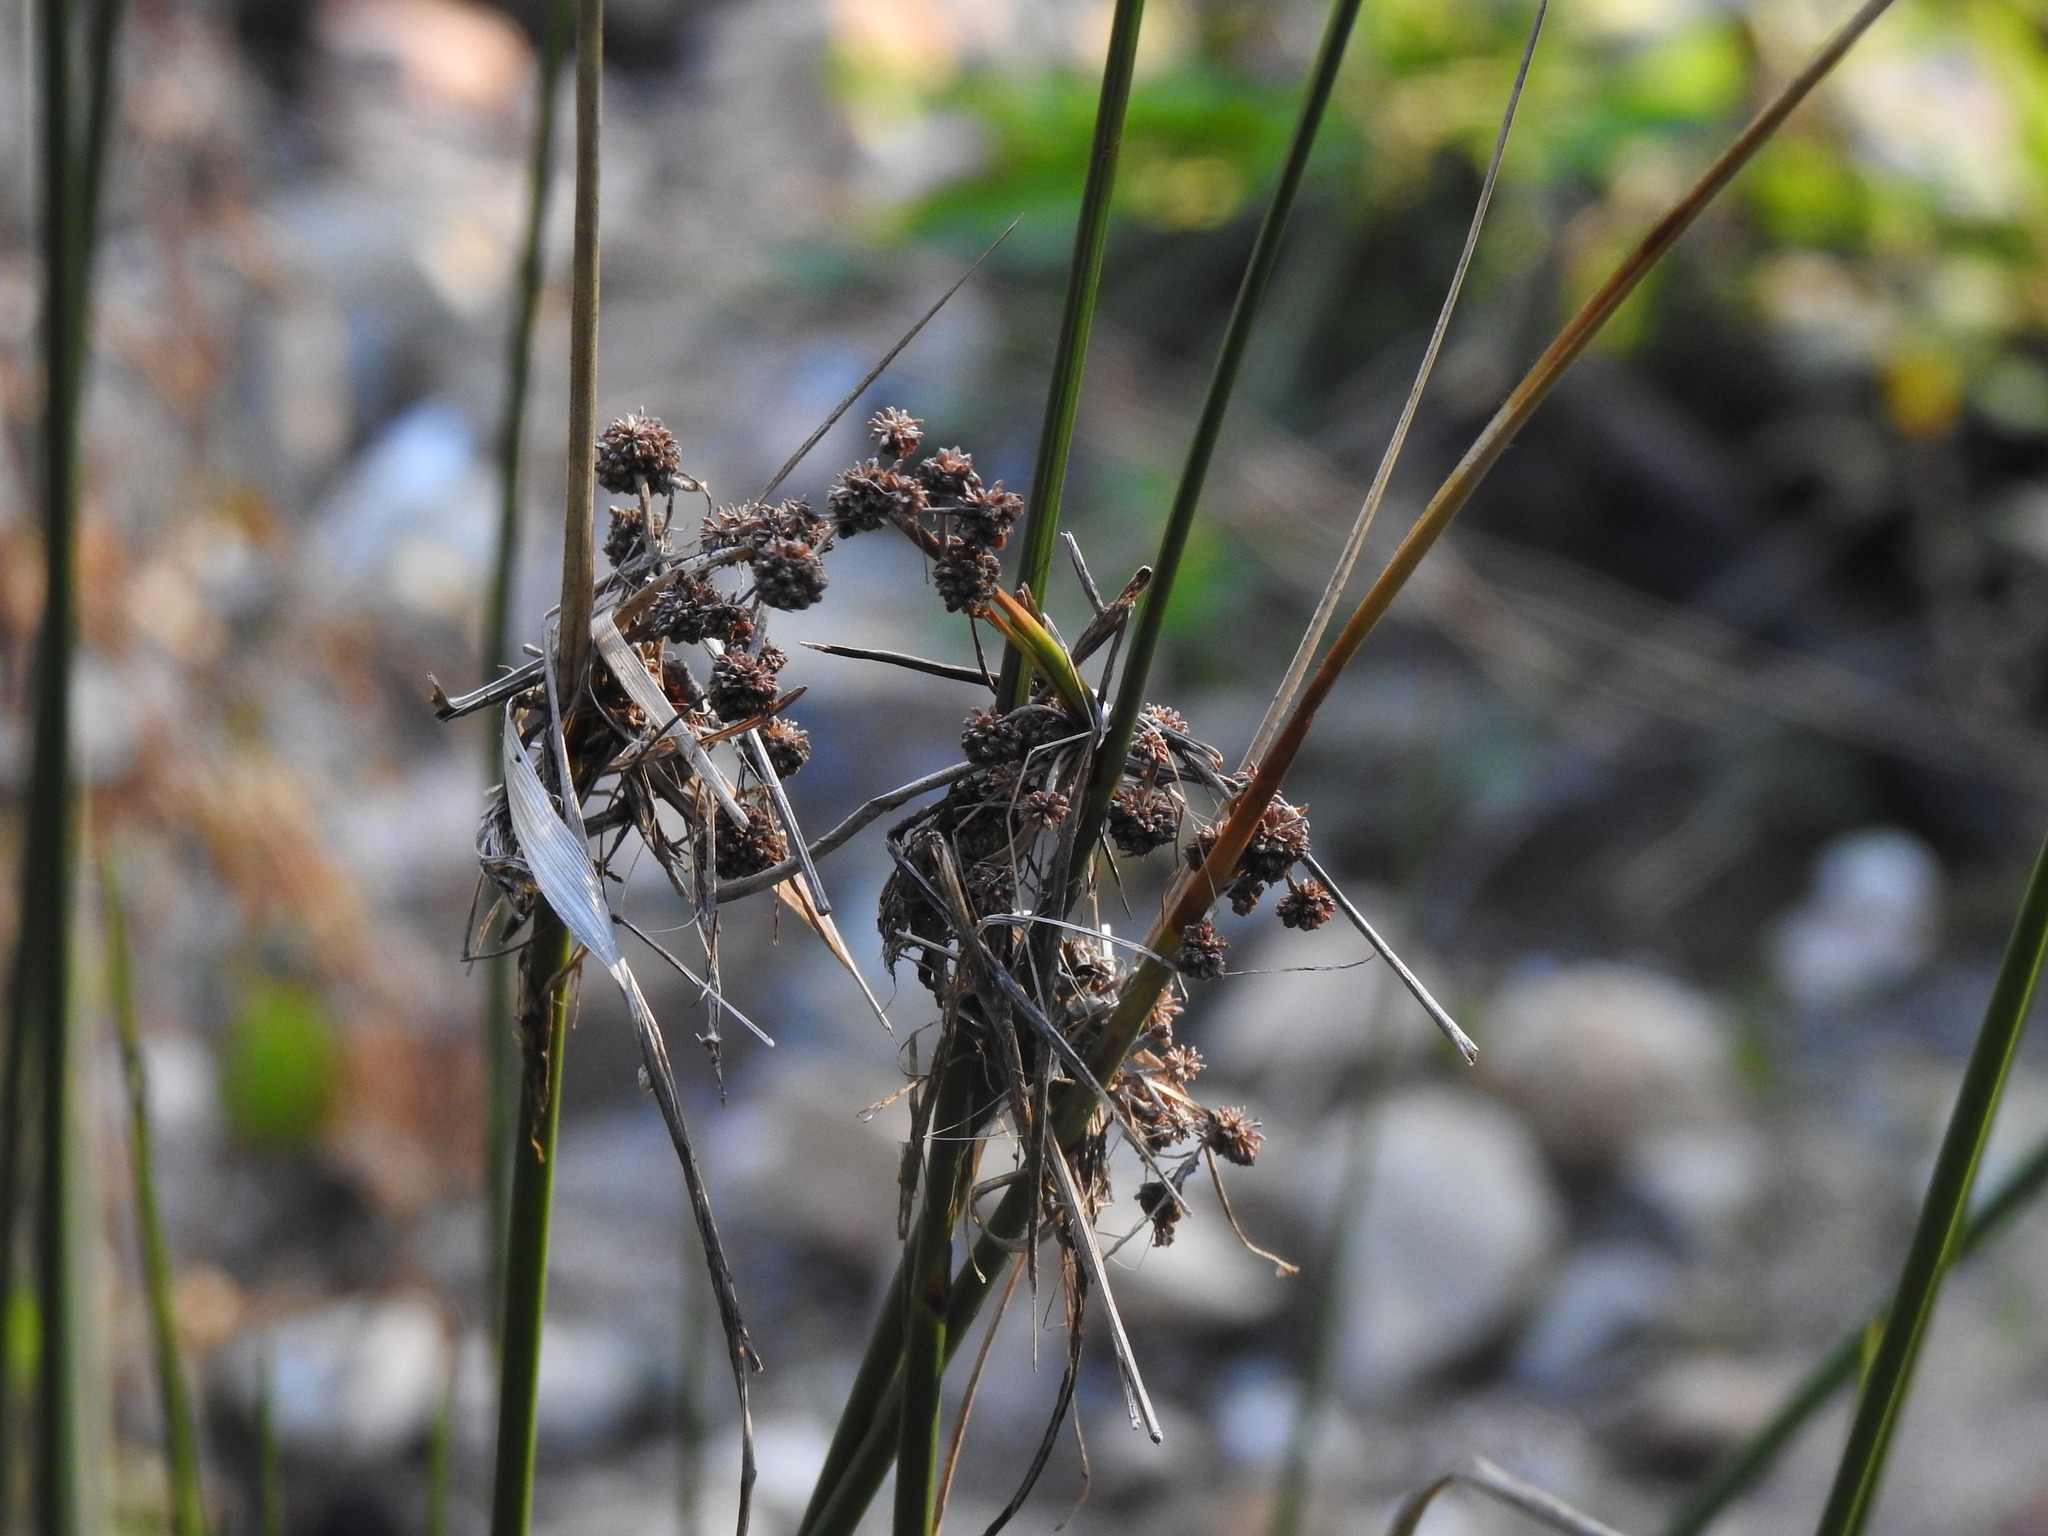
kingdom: Plantae
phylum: Tracheophyta
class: Liliopsida
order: Poales
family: Cyperaceae
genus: Scirpoides
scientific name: Scirpoides holoschoenus
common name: Round-headed club-rush
